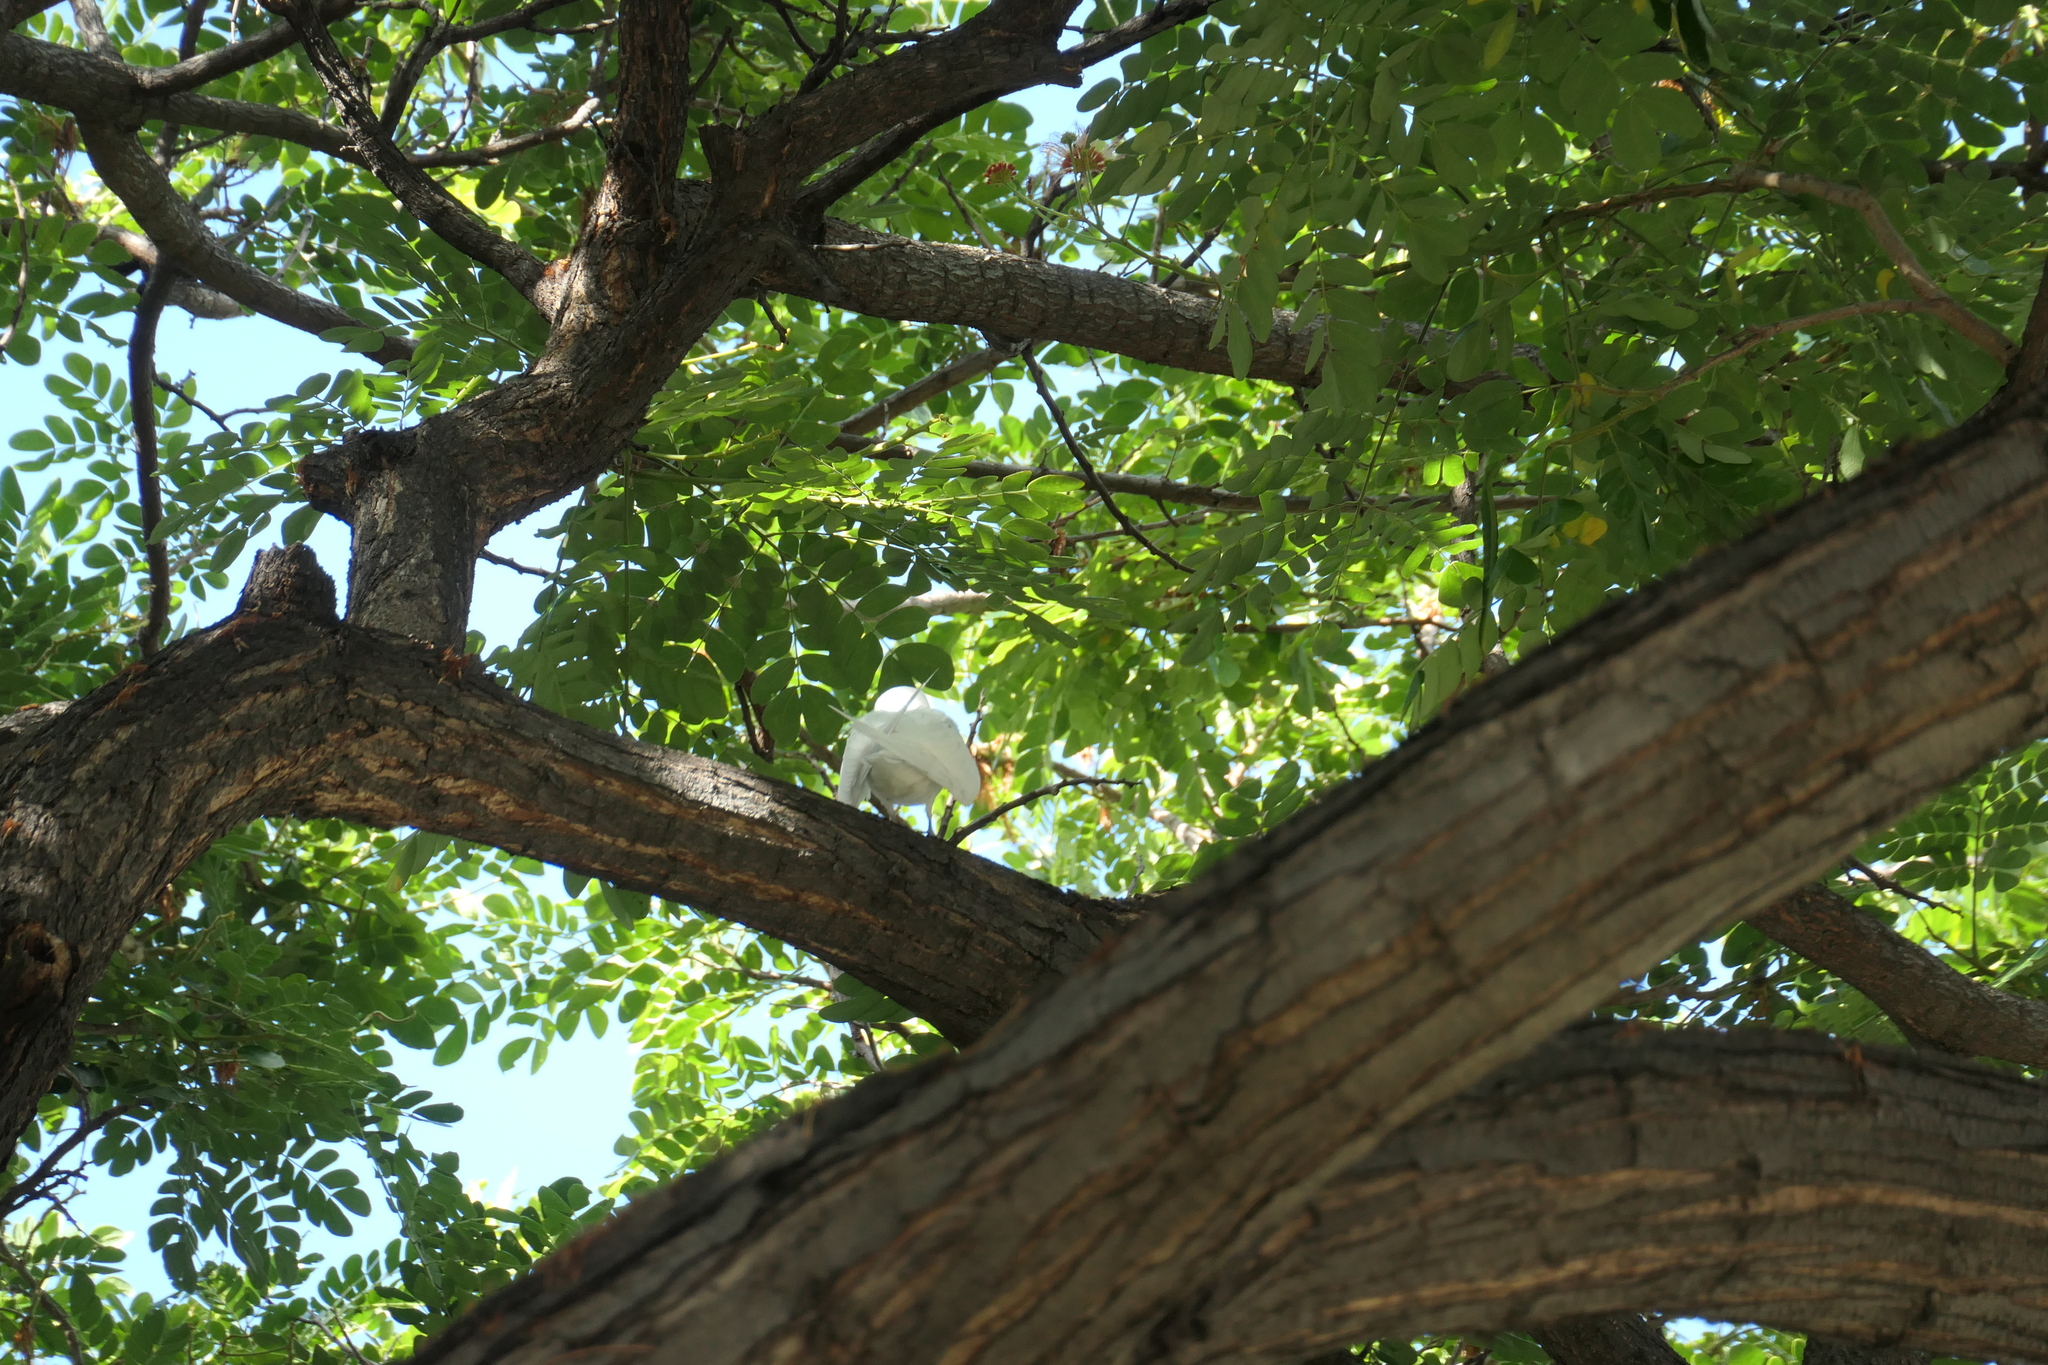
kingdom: Animalia
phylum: Chordata
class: Aves
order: Charadriiformes
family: Laridae
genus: Gygis
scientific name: Gygis alba
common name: White tern
